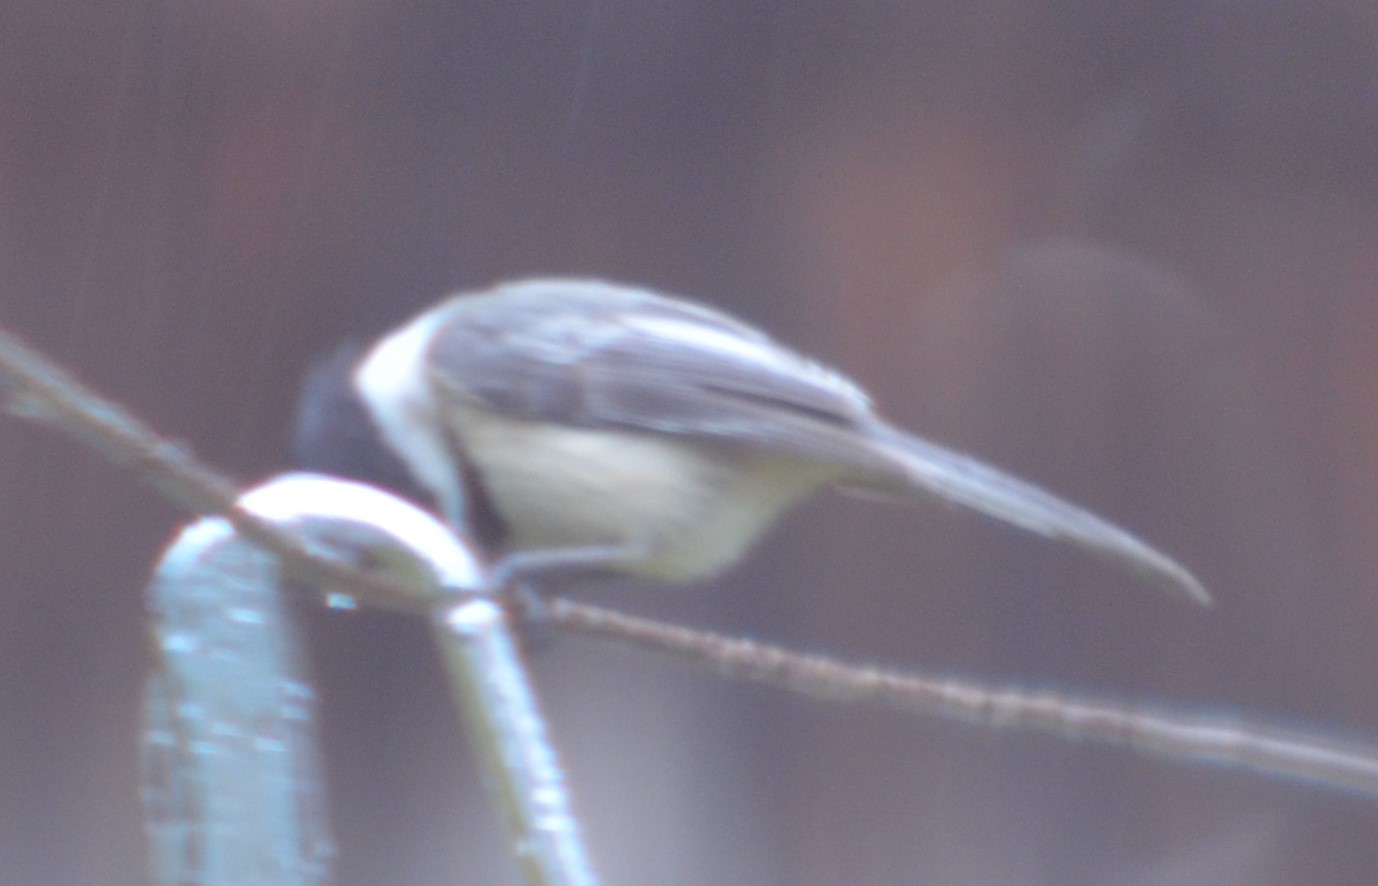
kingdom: Animalia
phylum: Chordata
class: Aves
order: Passeriformes
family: Paridae
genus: Poecile
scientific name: Poecile atricapillus
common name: Black-capped chickadee
